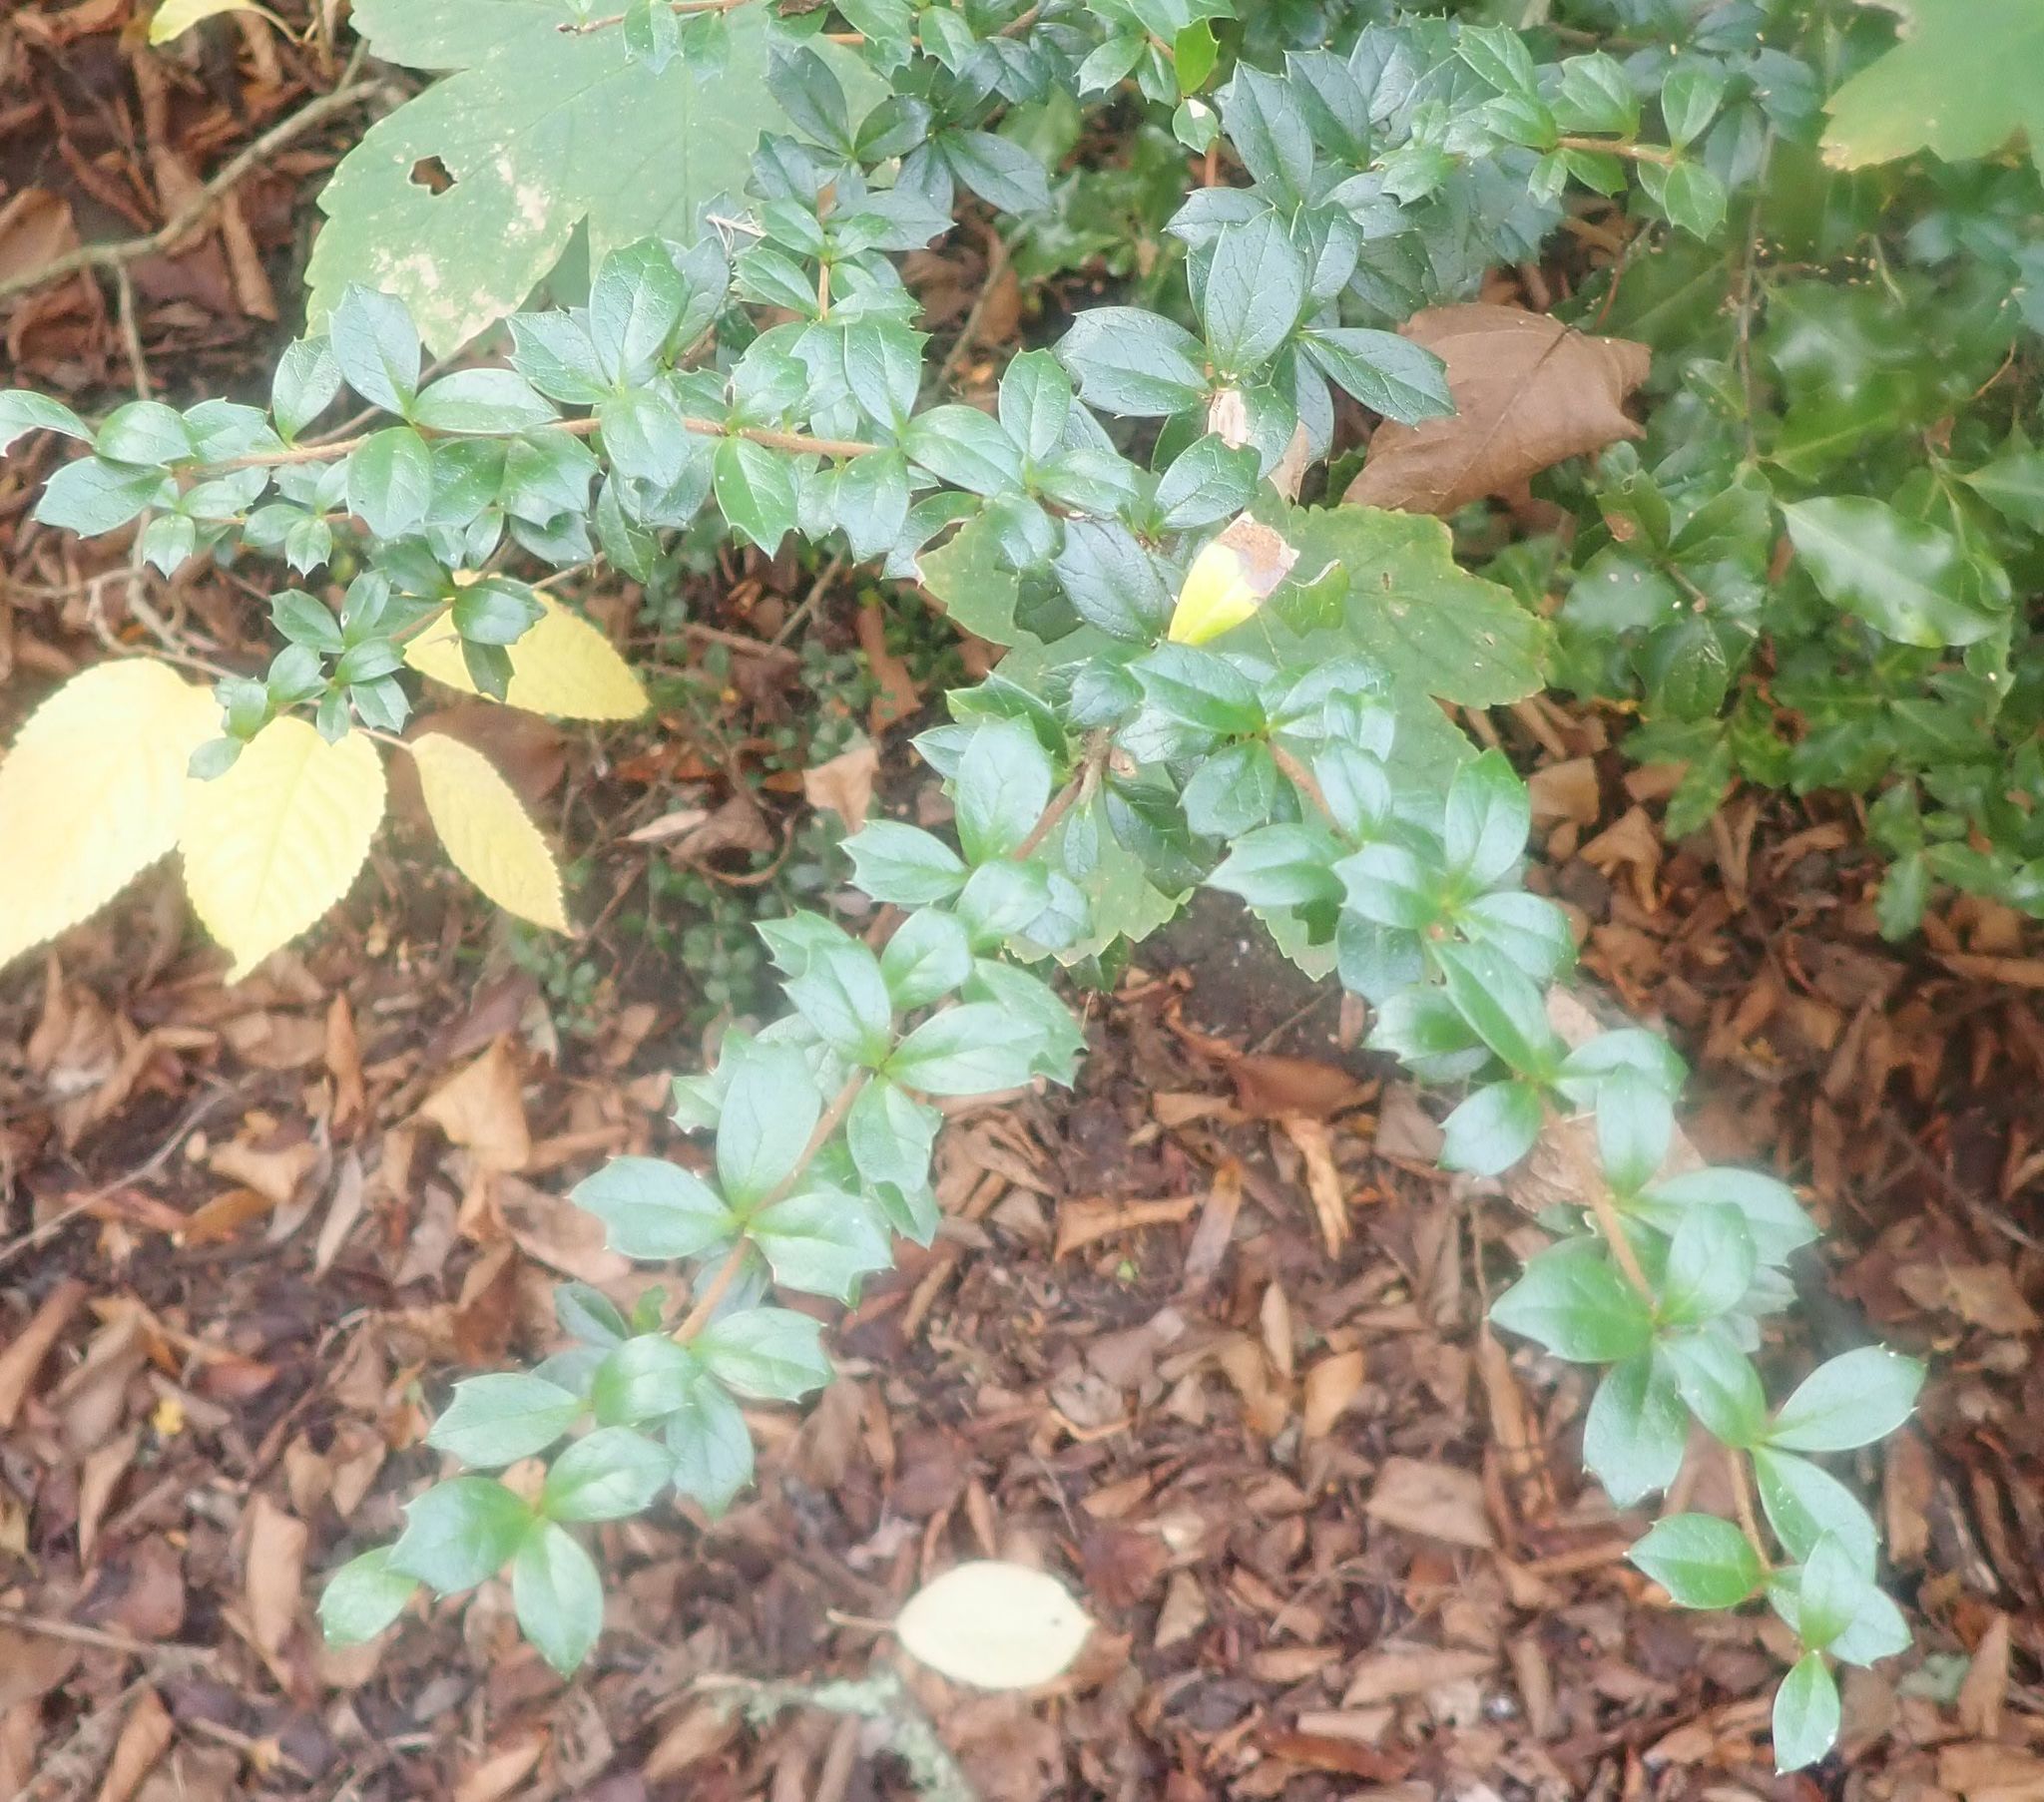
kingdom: Plantae
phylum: Tracheophyta
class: Magnoliopsida
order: Ranunculales
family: Berberidaceae
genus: Berberis
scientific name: Berberis darwinii
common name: Darwin's barberry
